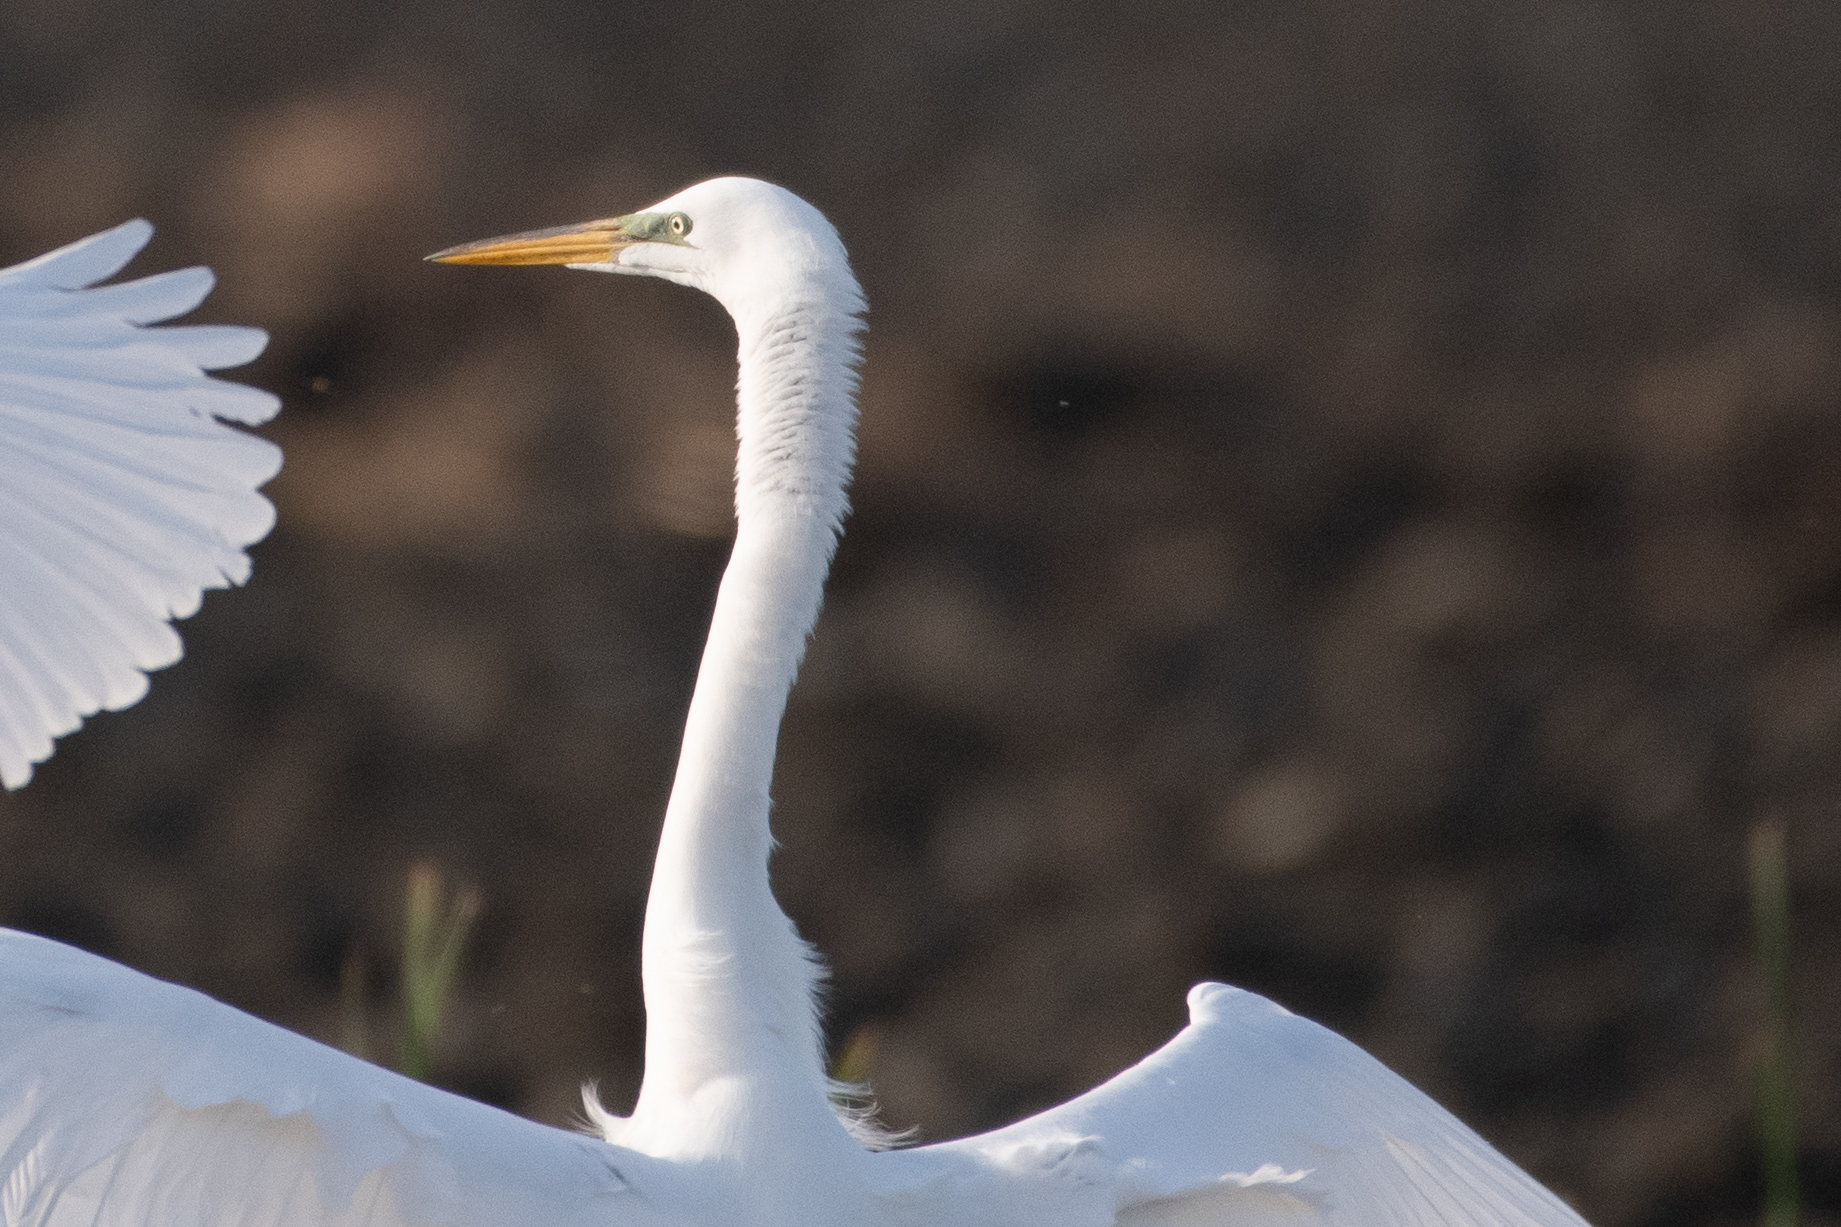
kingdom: Animalia
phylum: Chordata
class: Aves
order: Pelecaniformes
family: Ardeidae
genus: Ardea
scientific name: Ardea alba
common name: Great egret
